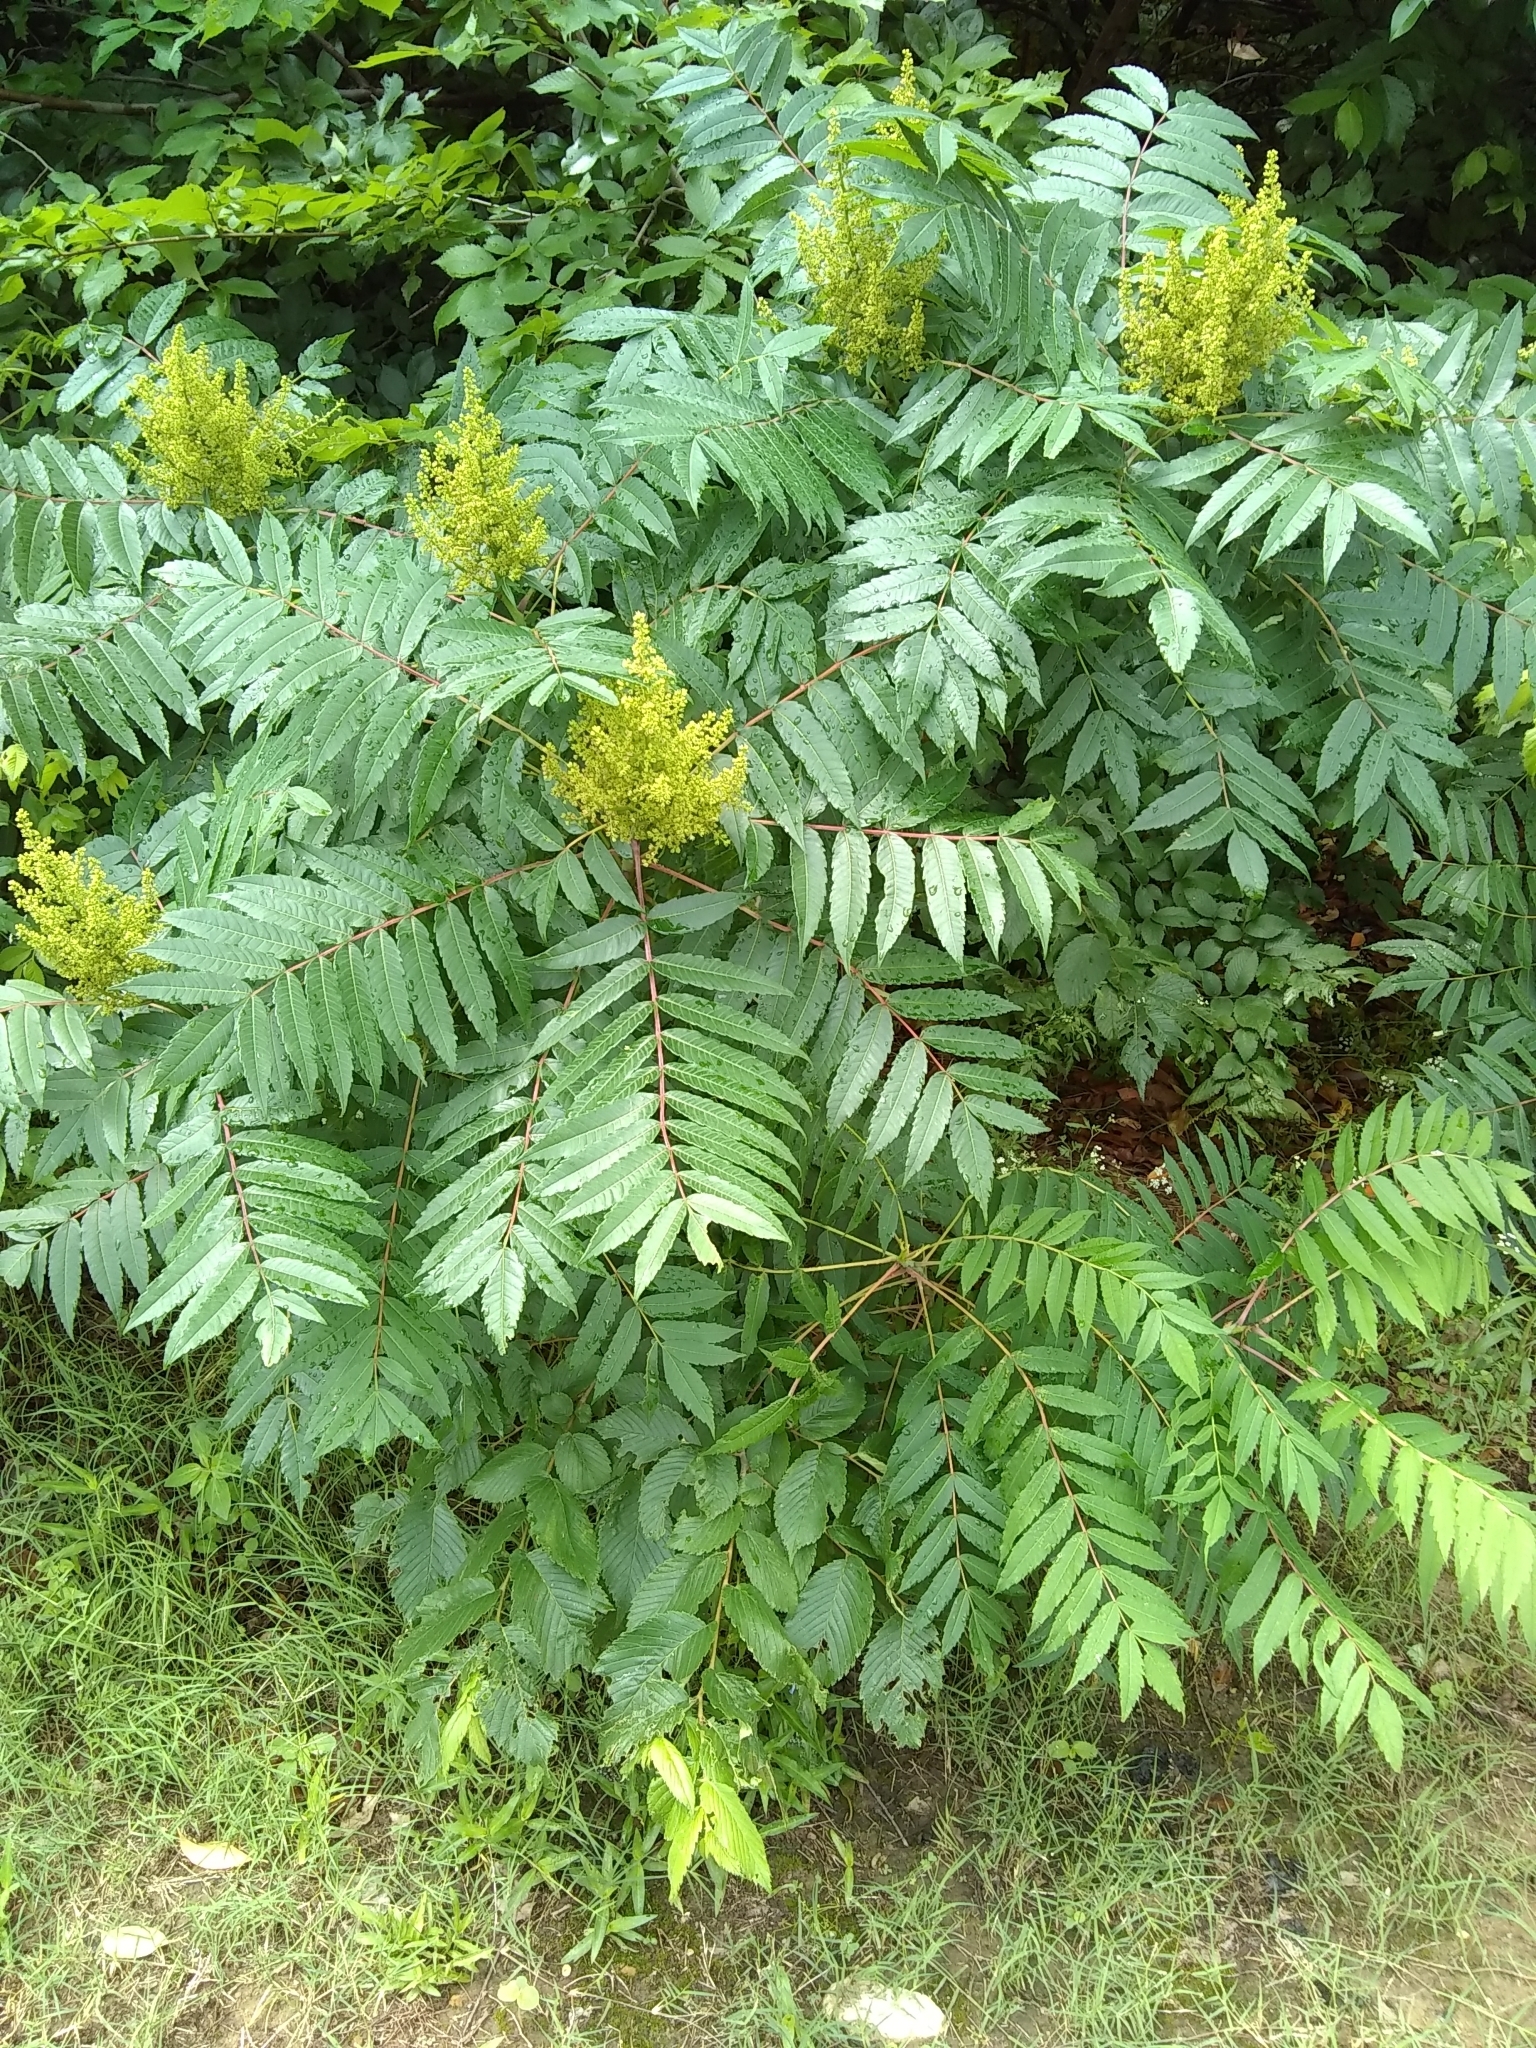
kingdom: Plantae
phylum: Tracheophyta
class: Magnoliopsida
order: Sapindales
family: Anacardiaceae
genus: Rhus
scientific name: Rhus glabra
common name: Scarlet sumac
